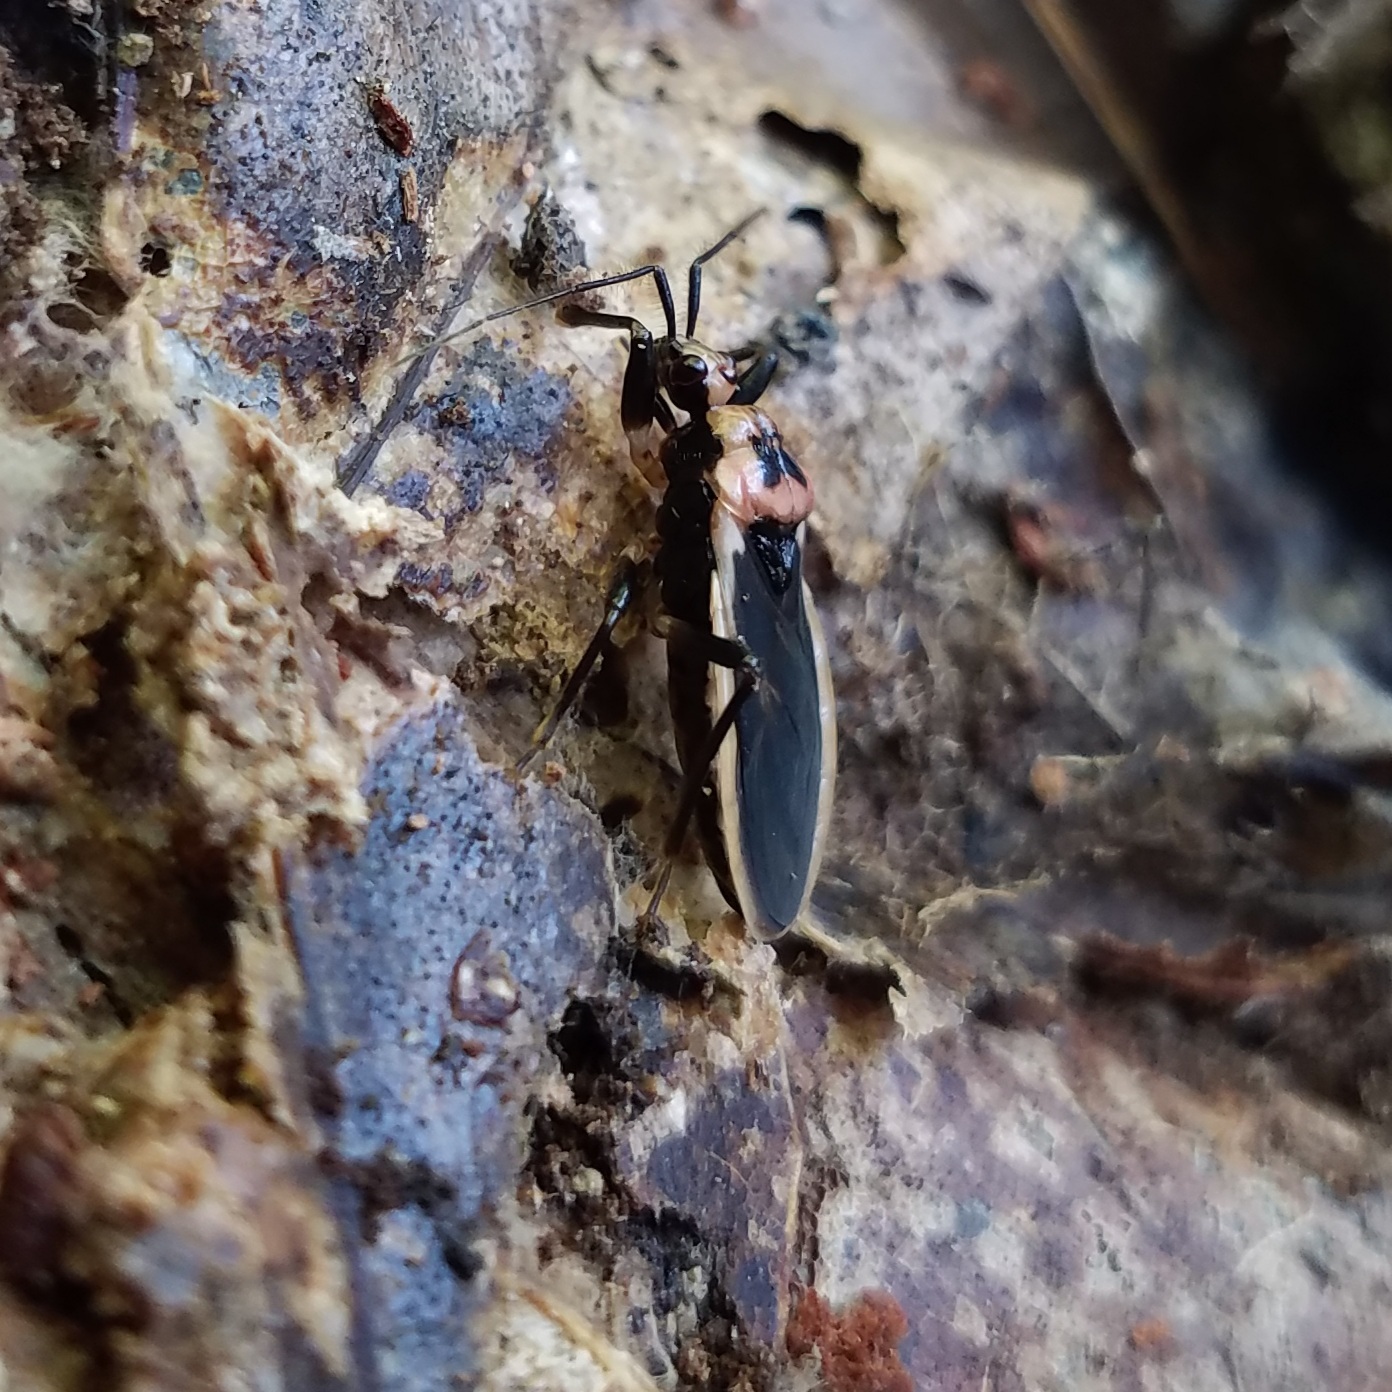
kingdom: Animalia
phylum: Arthropoda
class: Insecta
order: Hemiptera
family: Reduviidae
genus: Rhiginia
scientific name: Rhiginia cruciata
